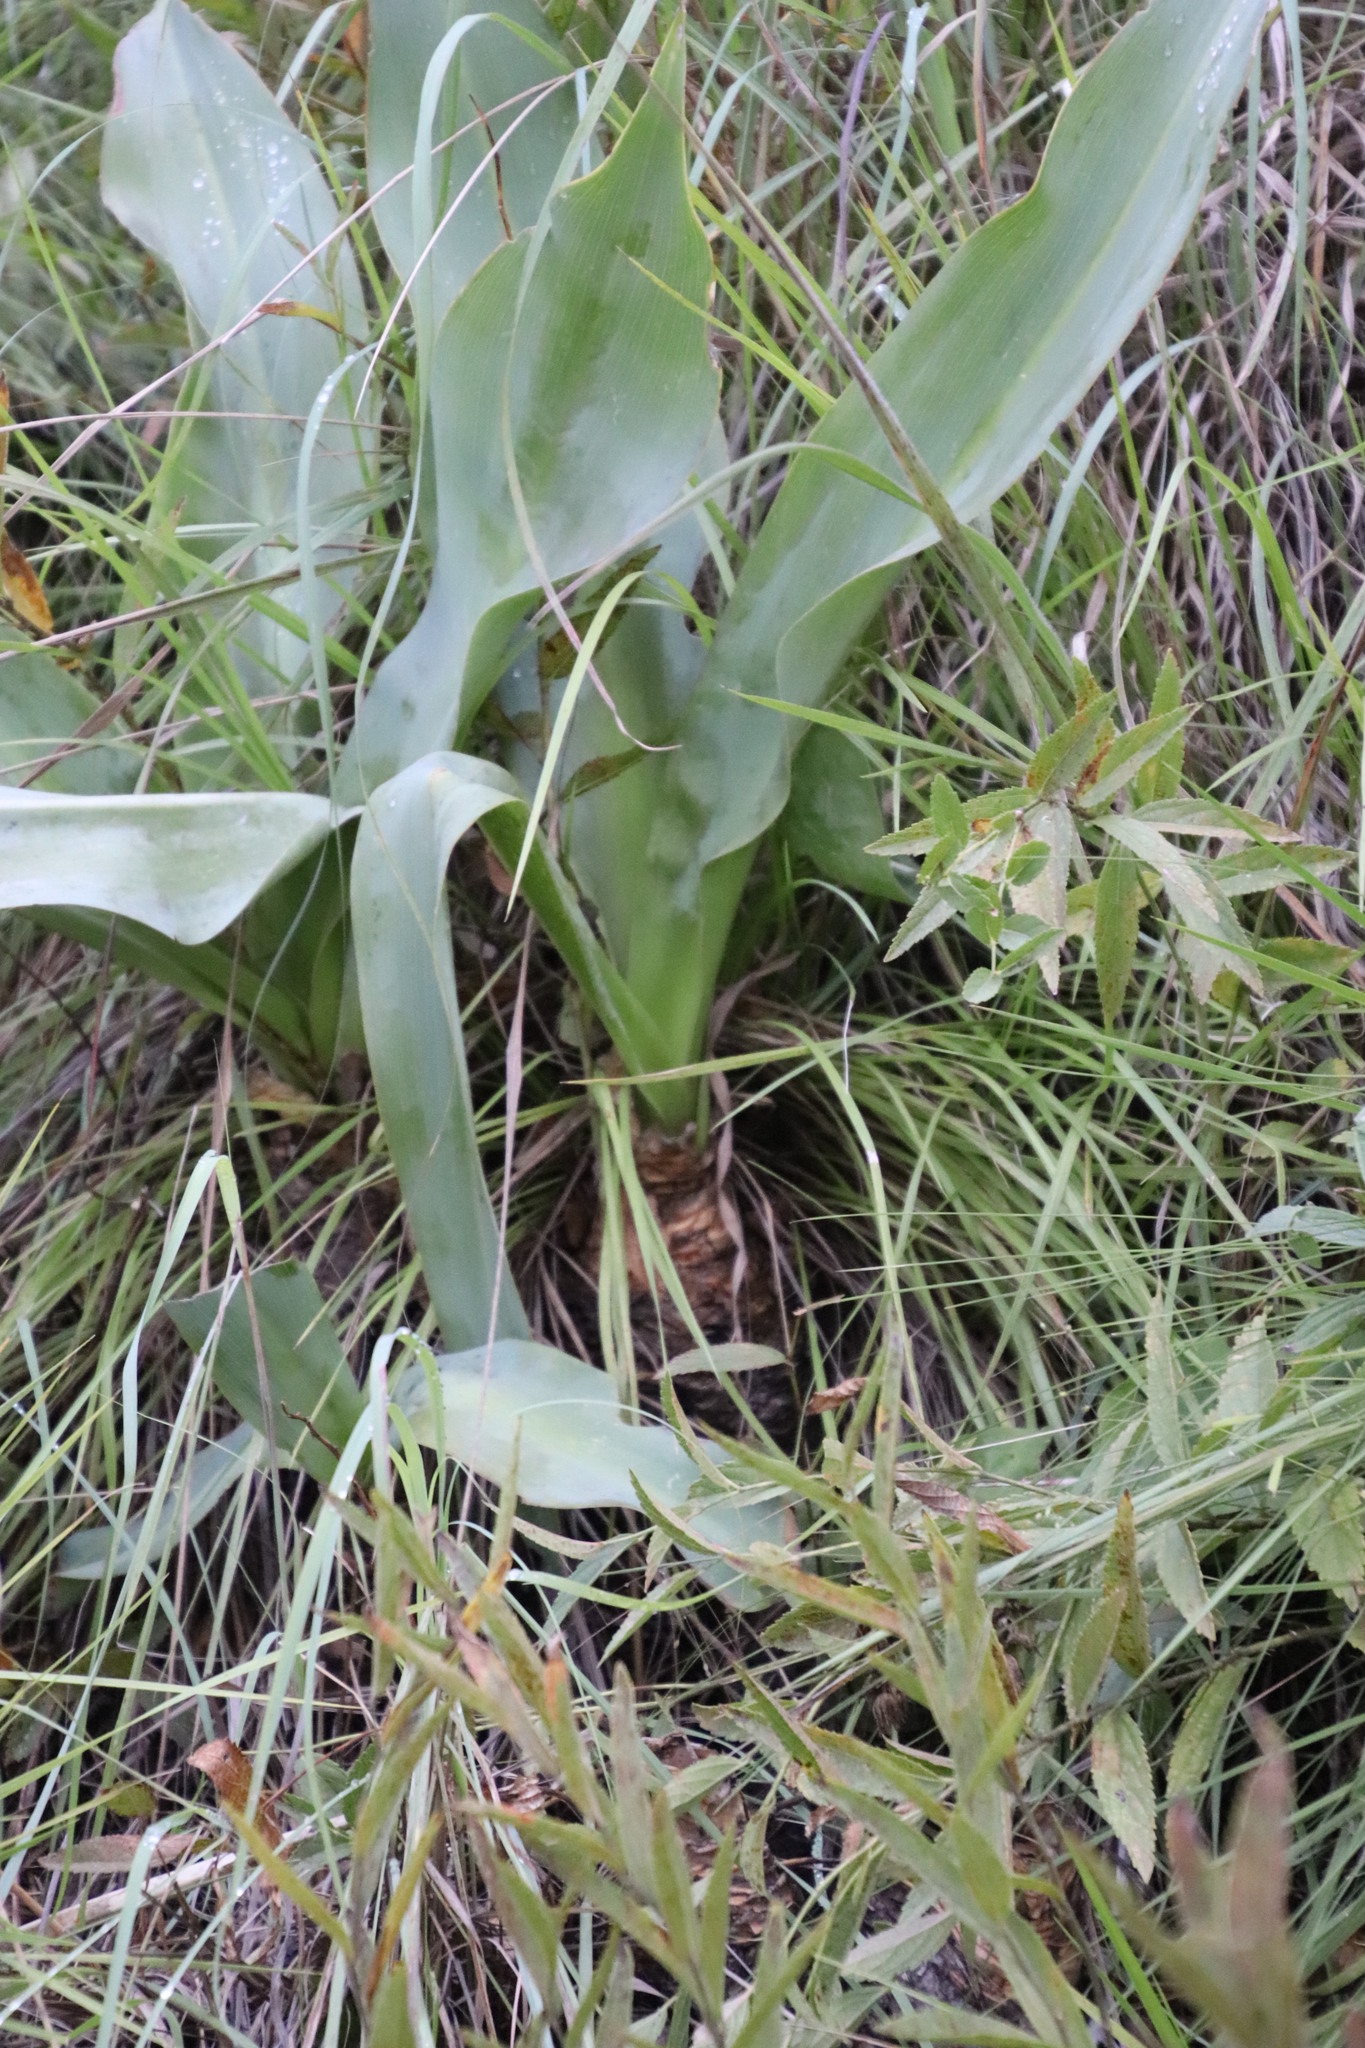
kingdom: Plantae
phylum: Tracheophyta
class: Liliopsida
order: Asparagales
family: Asparagaceae
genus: Merwilla
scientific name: Merwilla plumbea
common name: Blue-squill
